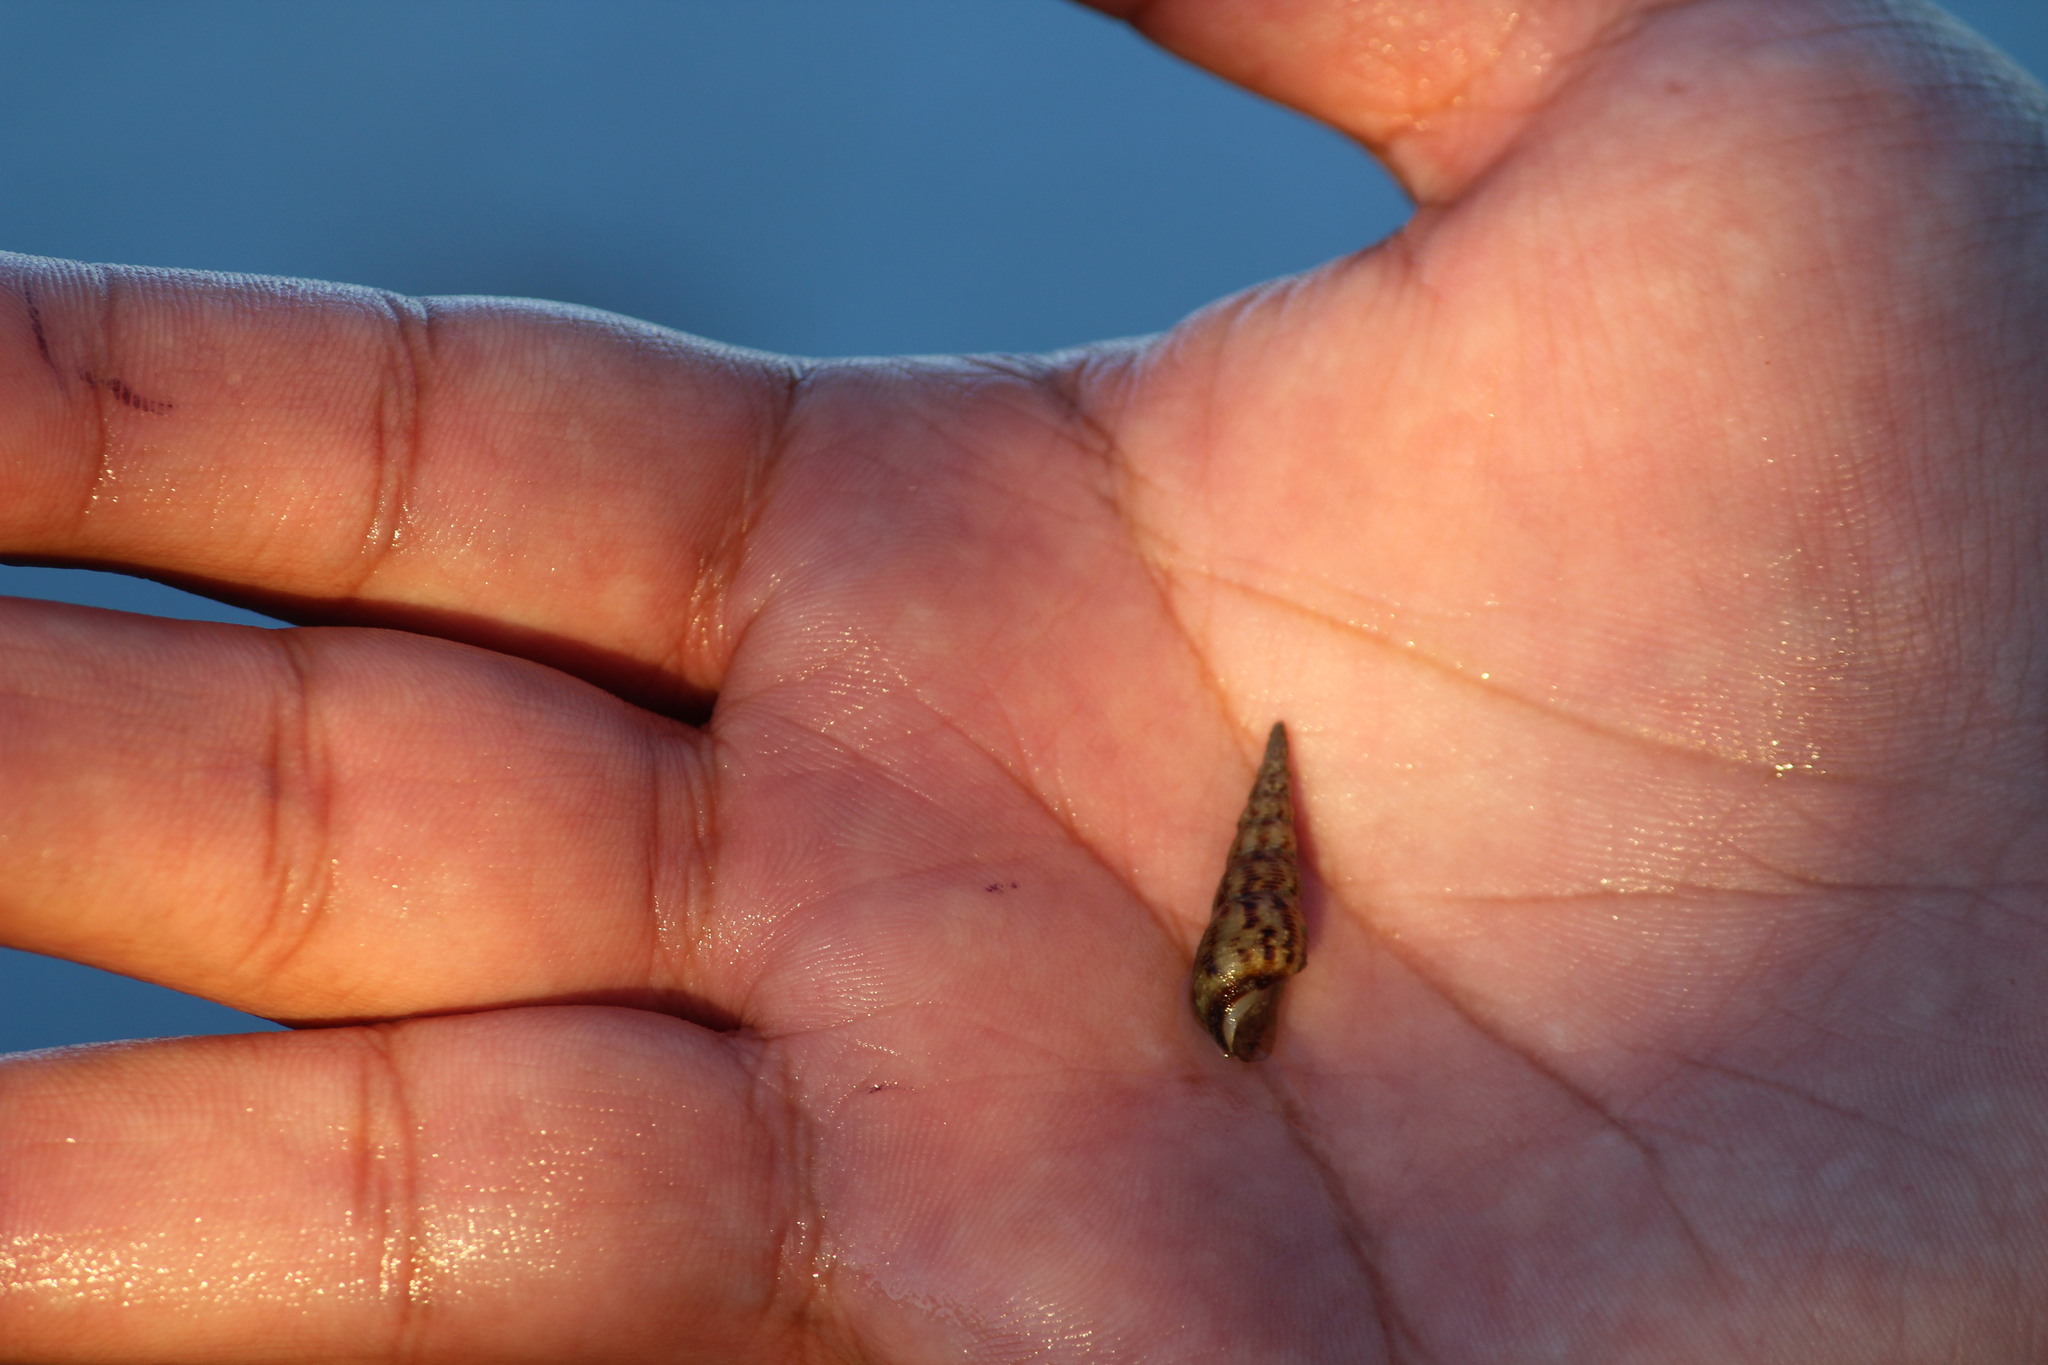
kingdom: Animalia
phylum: Mollusca
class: Gastropoda
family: Thiaridae
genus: Melanoides
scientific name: Melanoides tuberculata
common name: Red-rim melania
